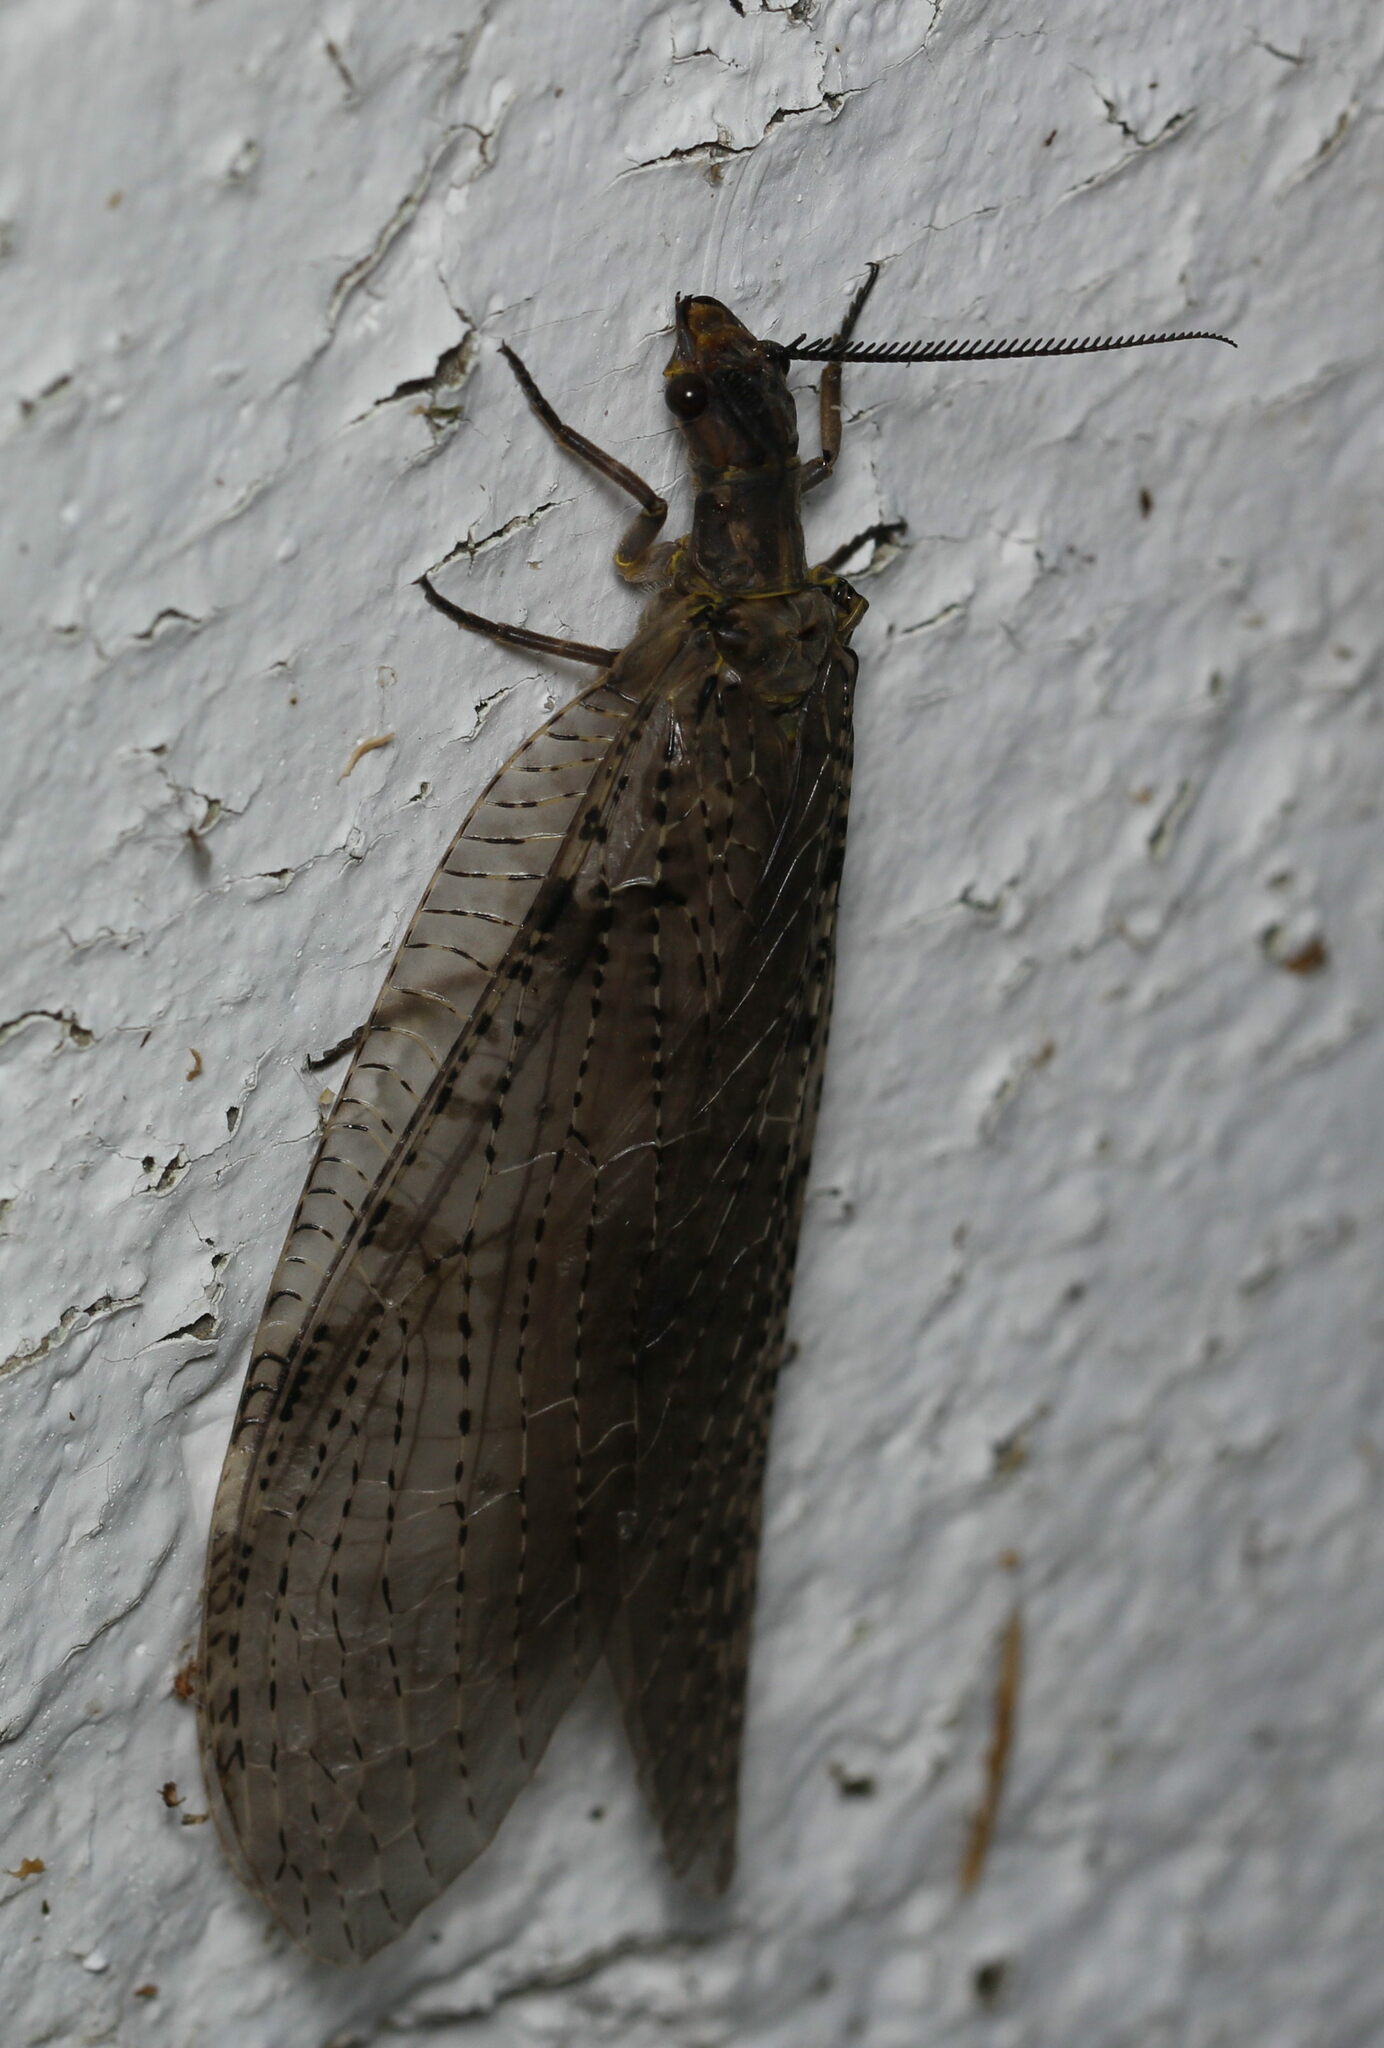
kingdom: Animalia
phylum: Arthropoda
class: Insecta
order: Megaloptera
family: Corydalidae
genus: Chauliodes
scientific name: Chauliodes pectinicornis
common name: Summer fishfly
